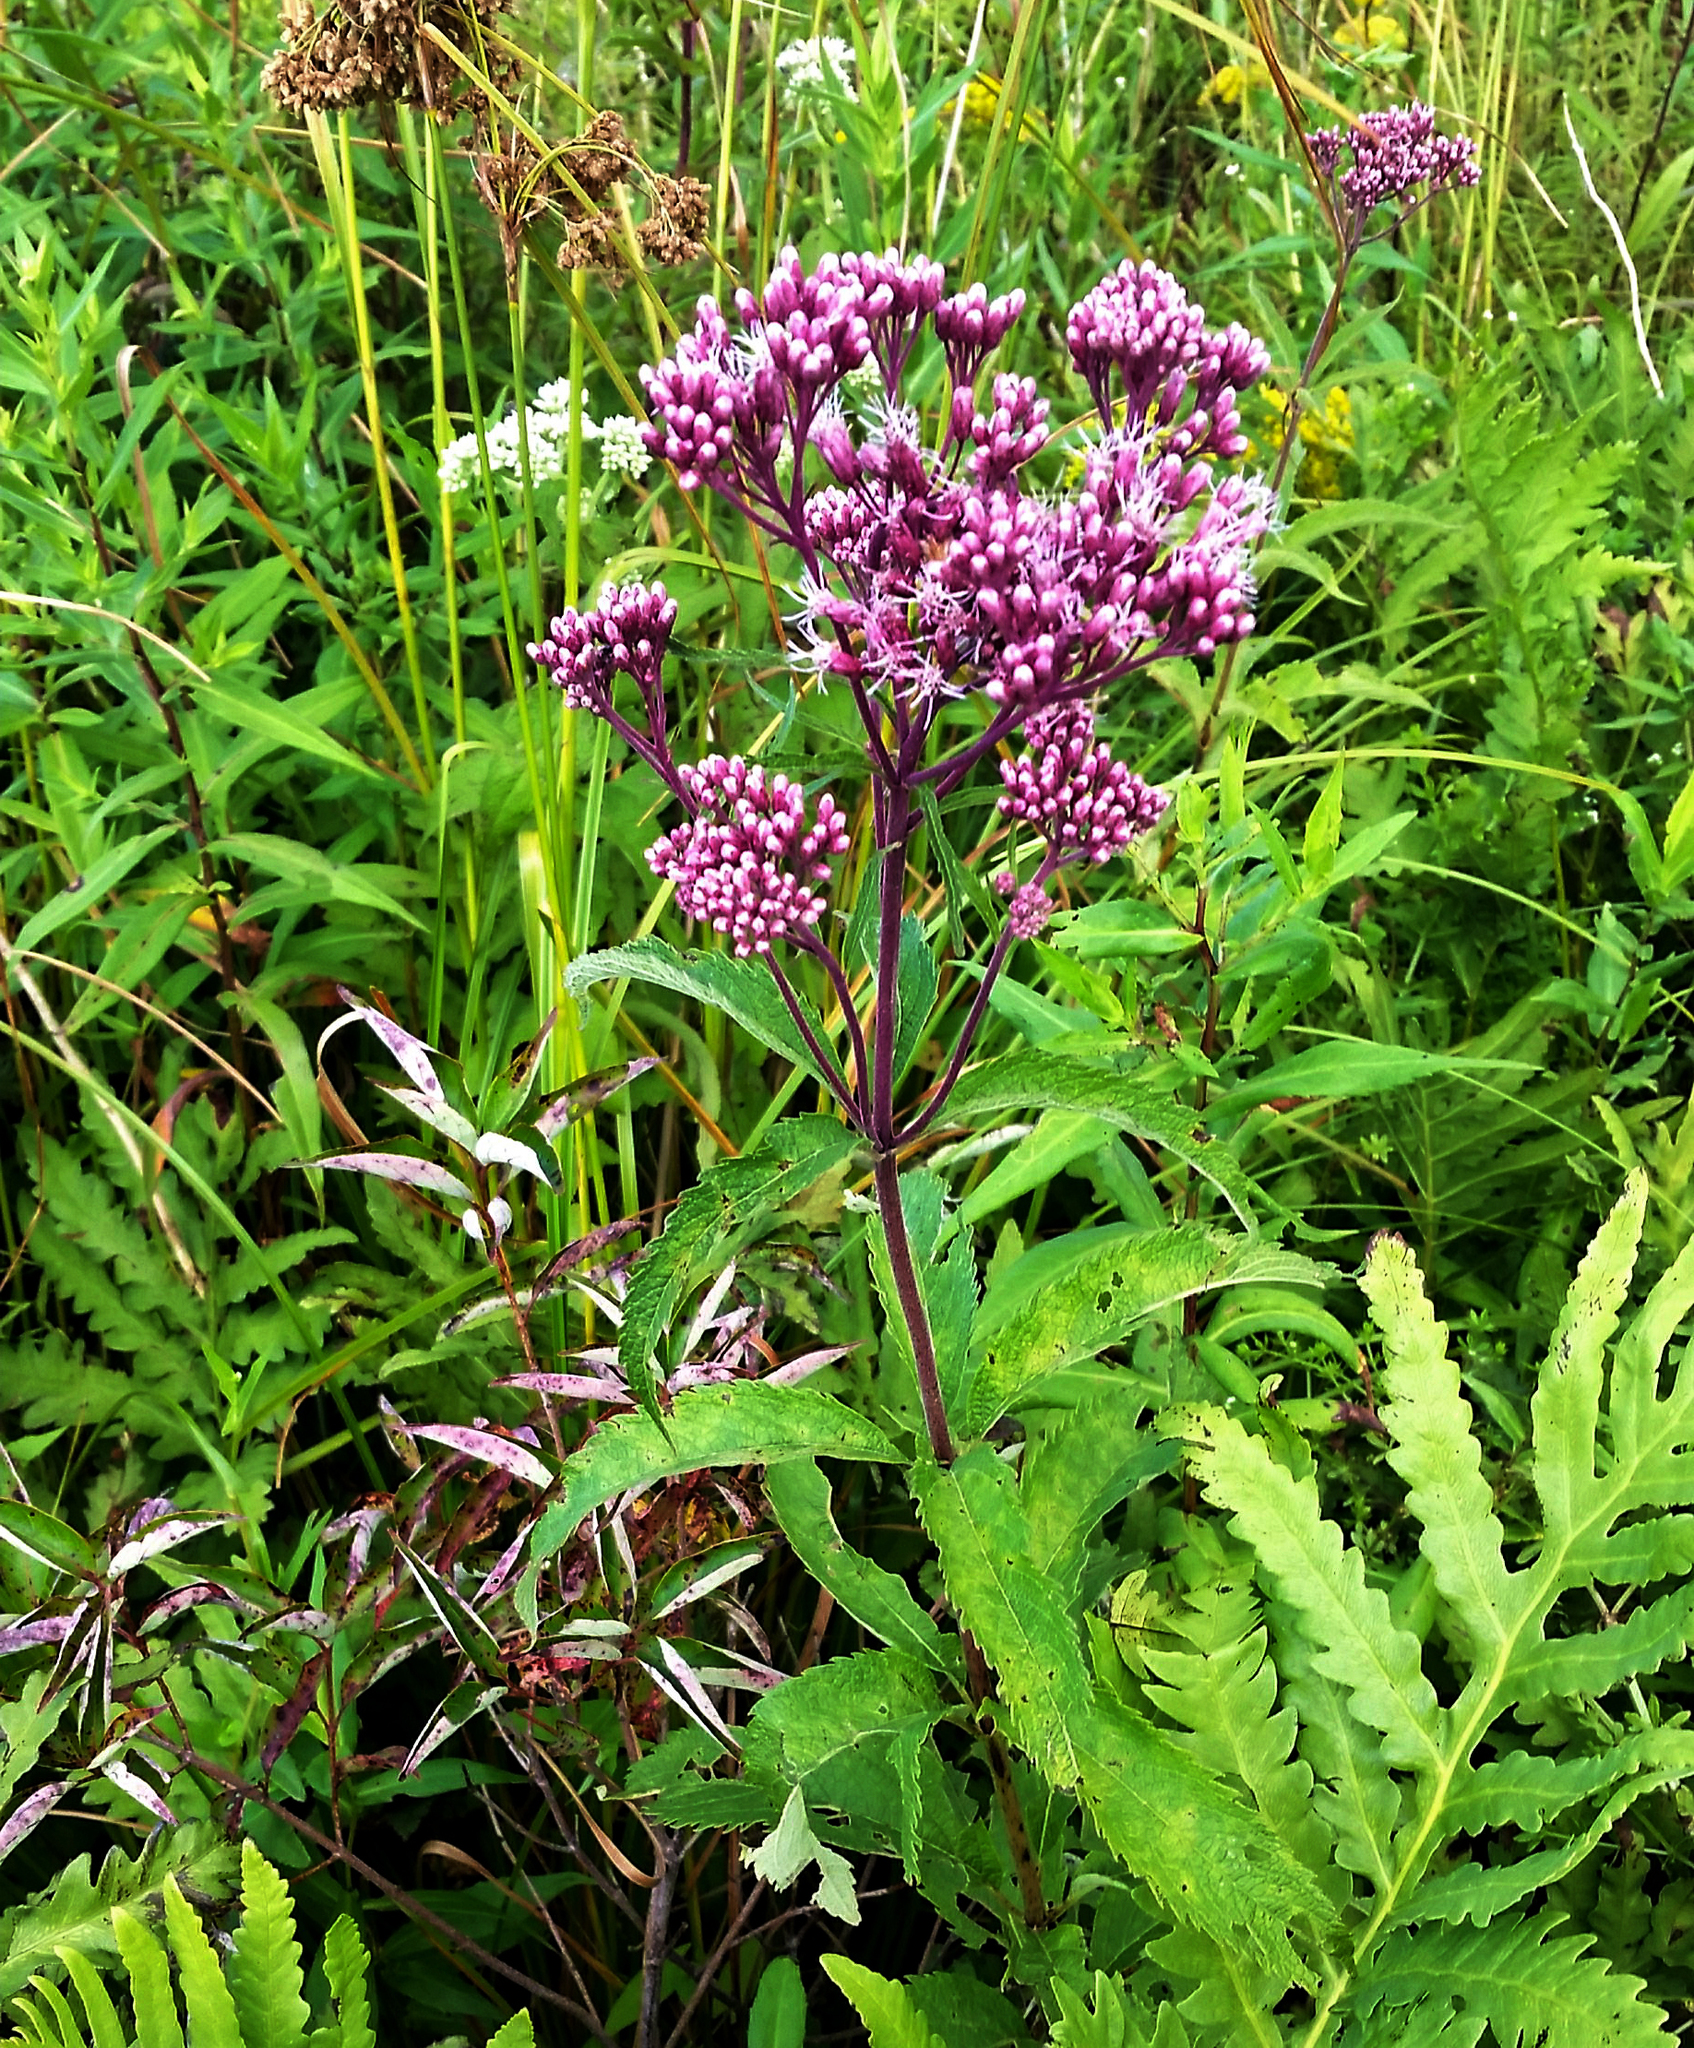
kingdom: Plantae
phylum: Tracheophyta
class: Magnoliopsida
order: Asterales
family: Asteraceae
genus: Eutrochium
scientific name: Eutrochium maculatum
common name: Spotted joe pye weed
